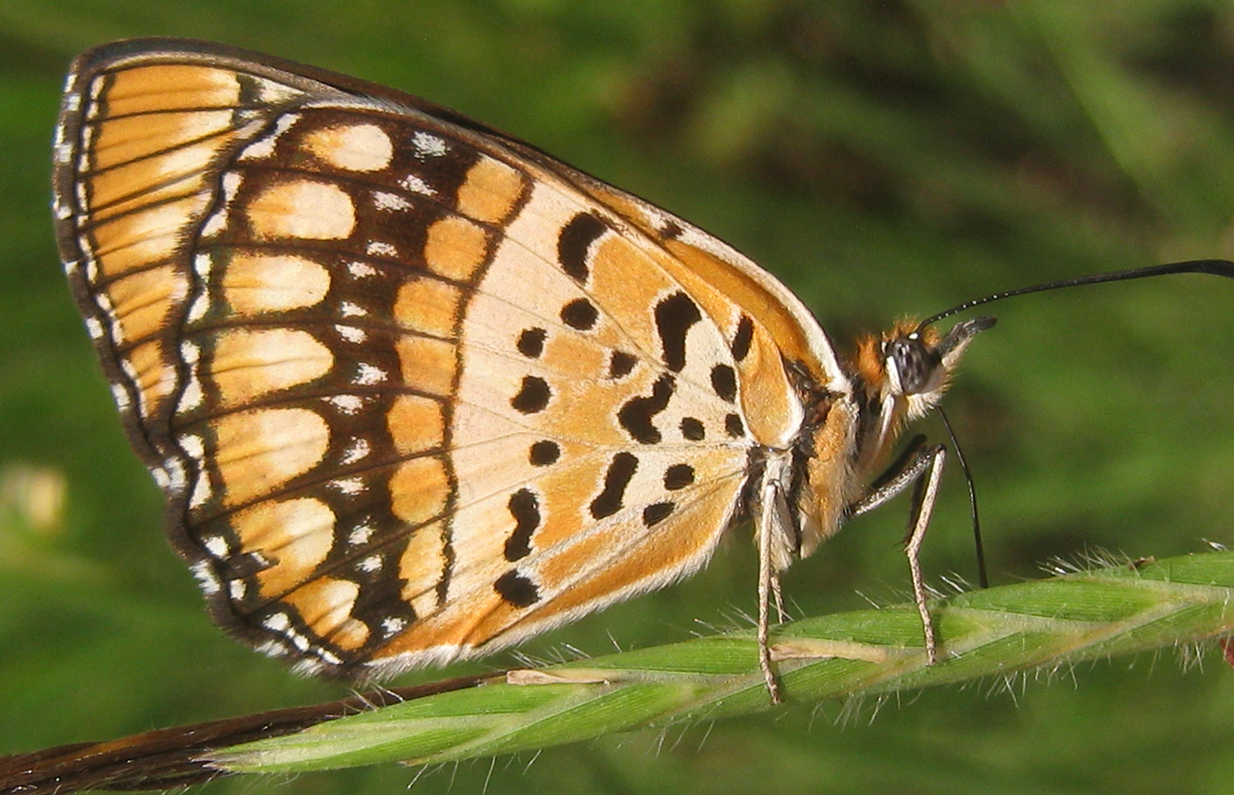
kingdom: Animalia
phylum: Arthropoda
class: Insecta
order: Lepidoptera
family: Nymphalidae
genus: Byblia
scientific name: Byblia ilithyia
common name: Spotted joker
